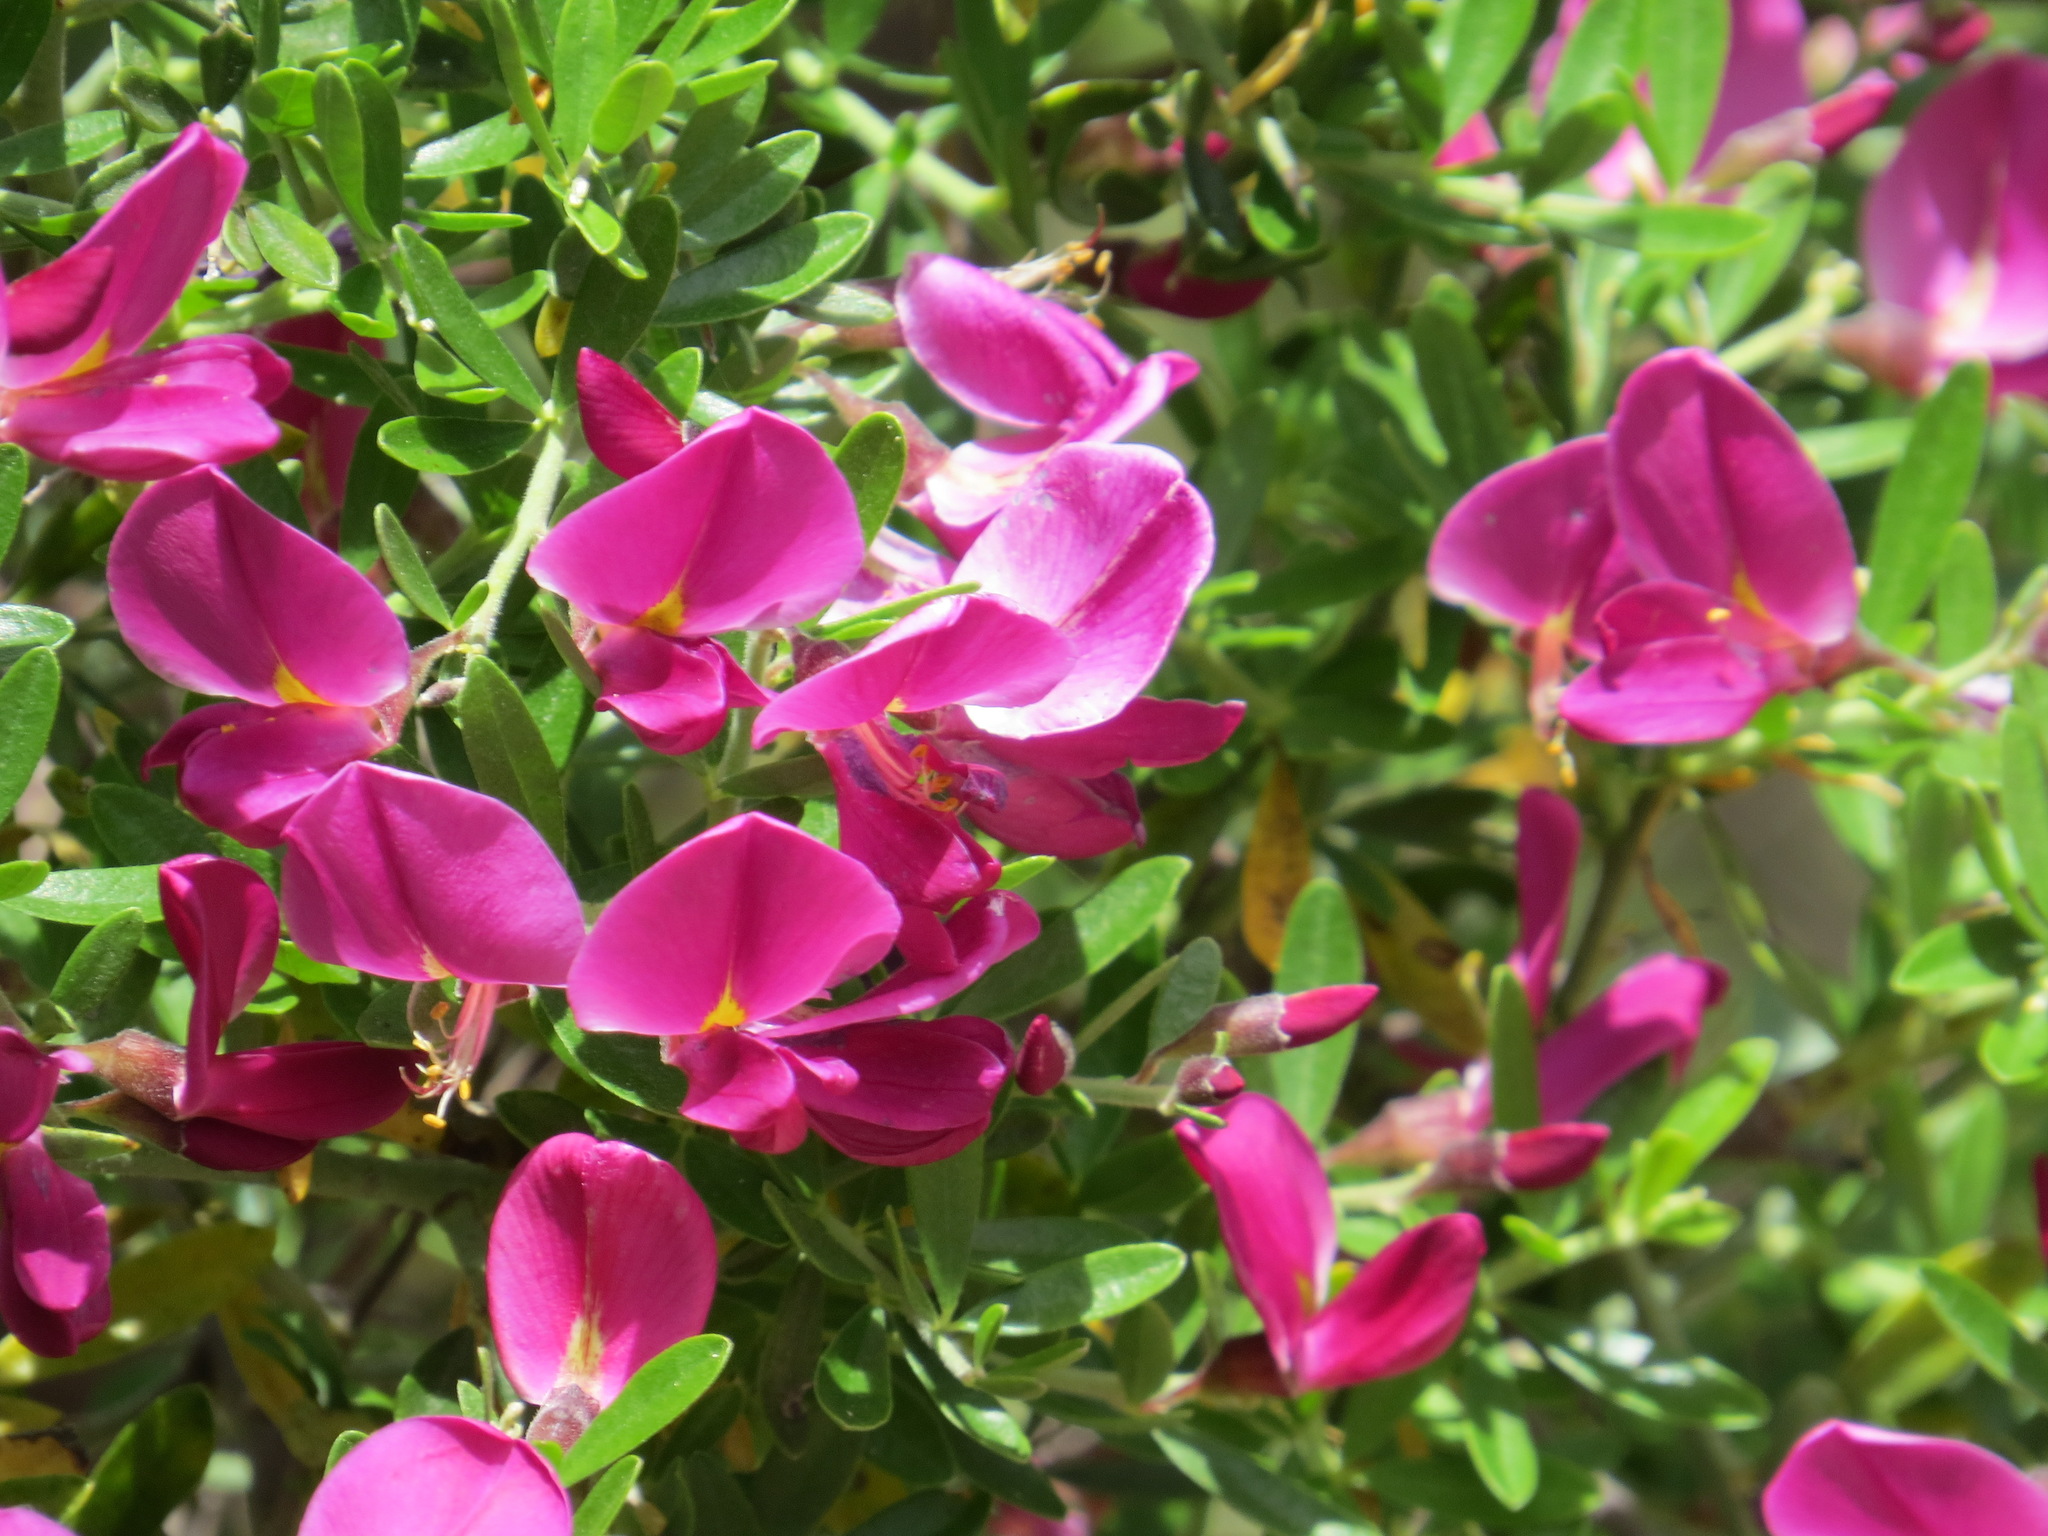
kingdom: Plantae
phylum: Tracheophyta
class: Magnoliopsida
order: Fabales
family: Fabaceae
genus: Pickeringia
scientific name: Pickeringia montana
